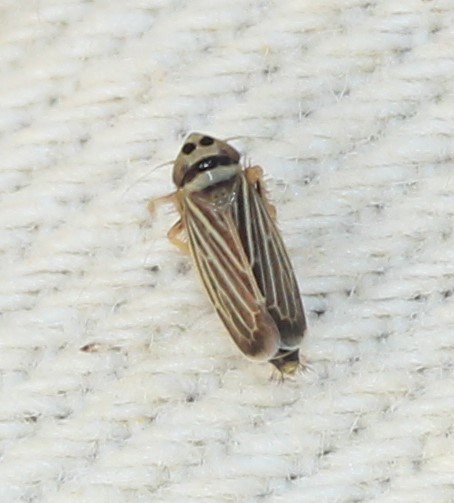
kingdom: Animalia
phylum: Arthropoda
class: Insecta
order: Hemiptera
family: Cicadellidae
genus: Amblysellus
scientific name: Amblysellus curtisii
